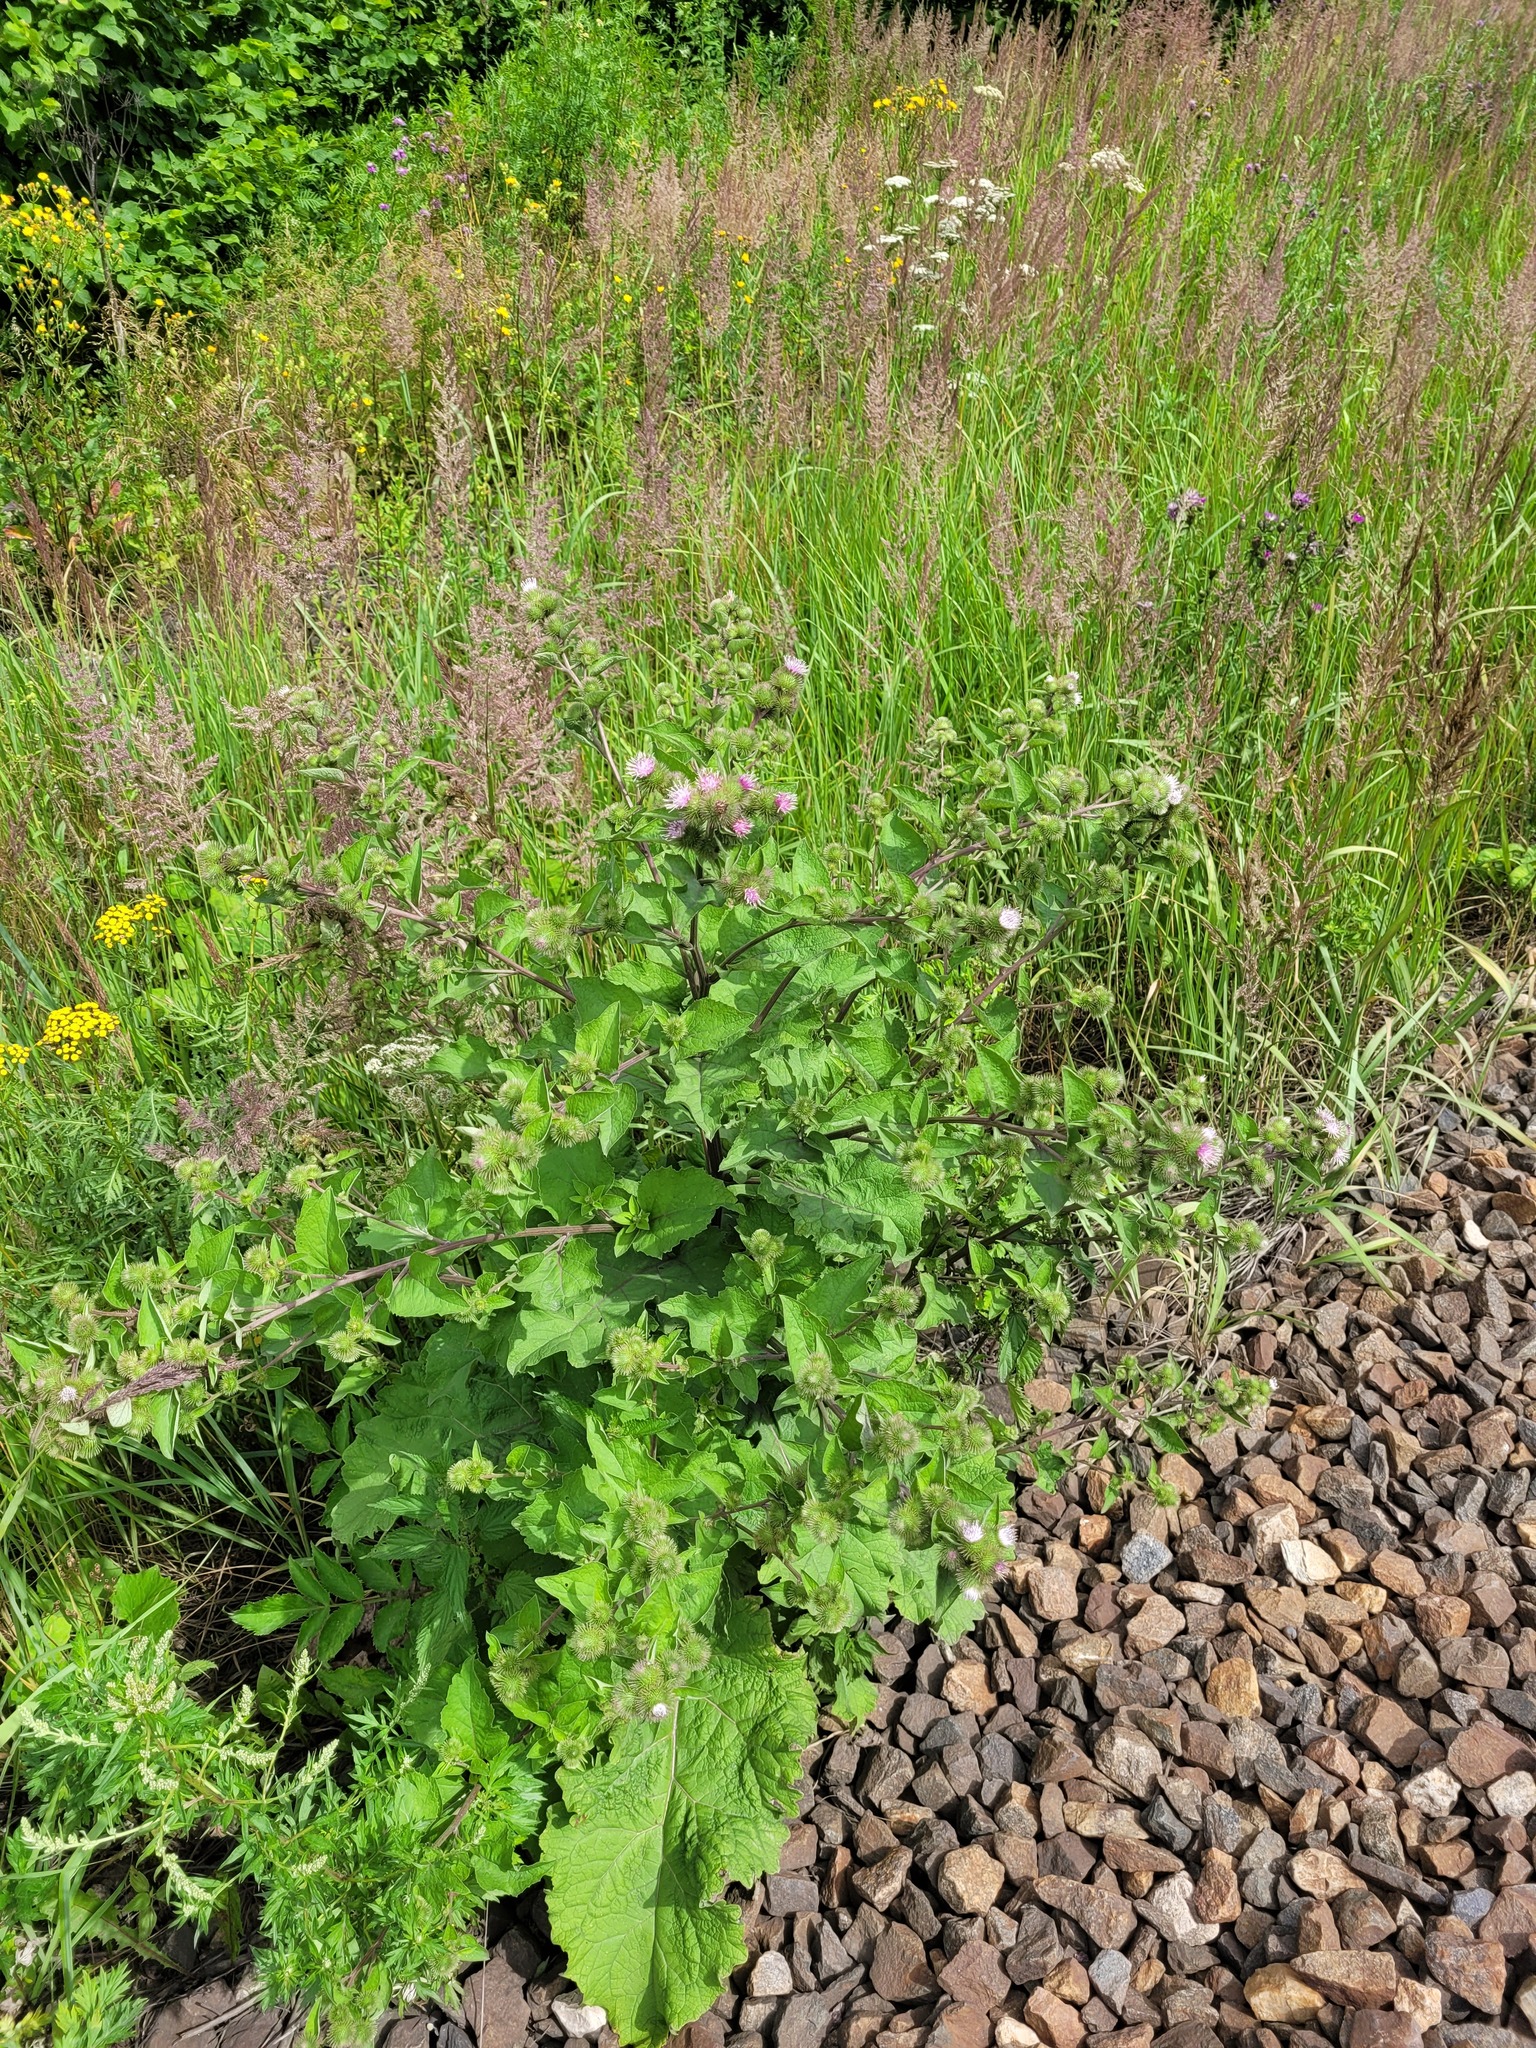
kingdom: Plantae
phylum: Tracheophyta
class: Magnoliopsida
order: Asterales
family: Asteraceae
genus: Arctium
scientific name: Arctium minus
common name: Lesser burdock
